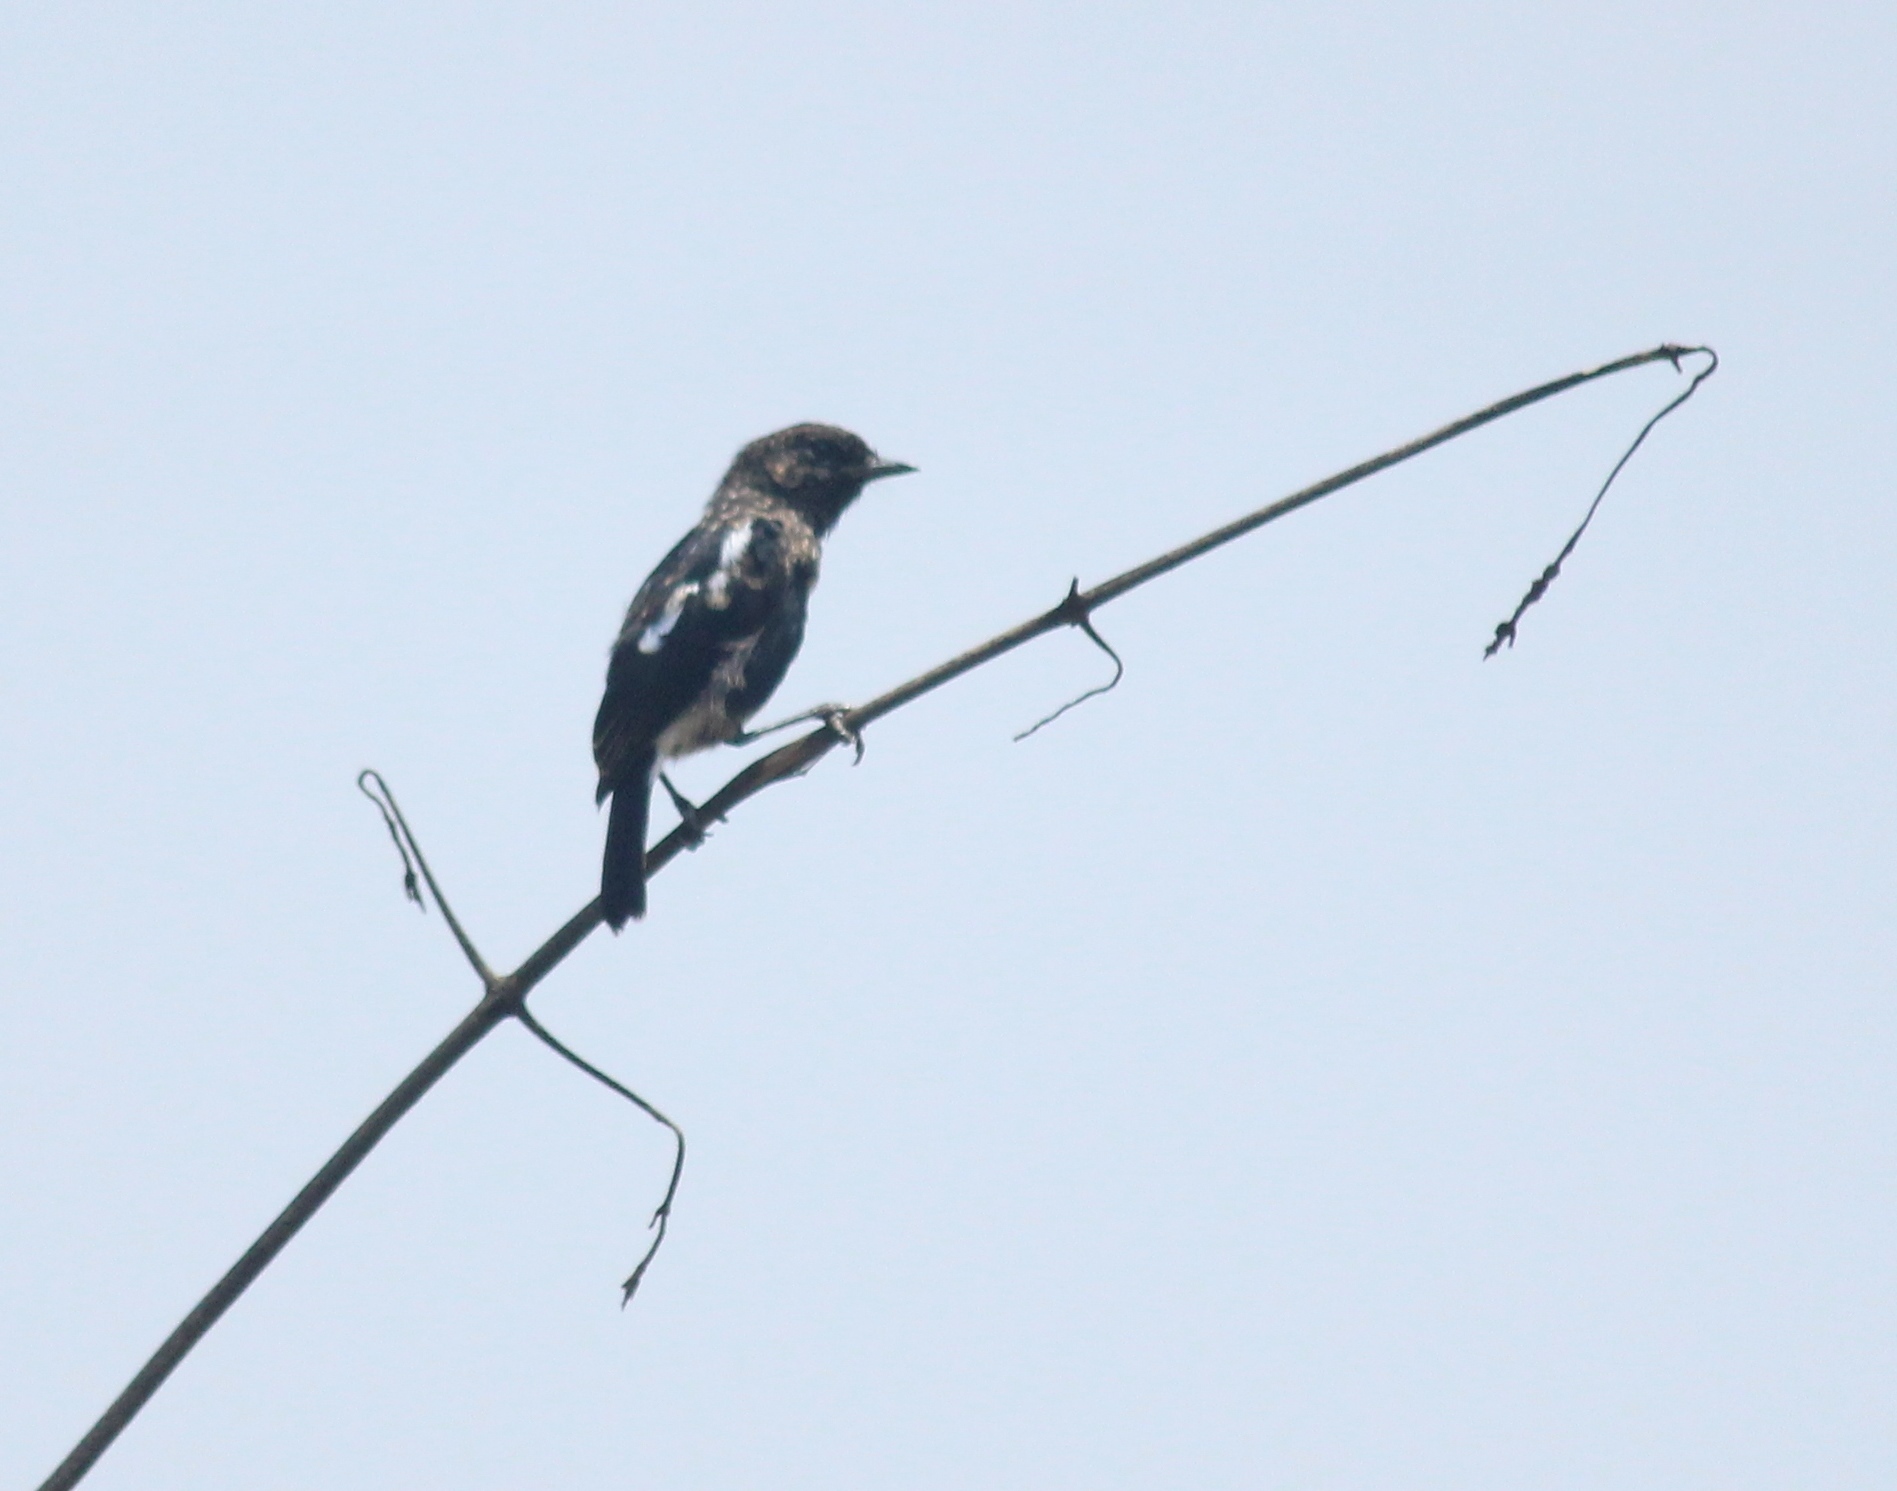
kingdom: Animalia
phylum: Chordata
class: Aves
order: Passeriformes
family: Muscicapidae
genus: Saxicola
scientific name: Saxicola caprata
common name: Pied bush chat
